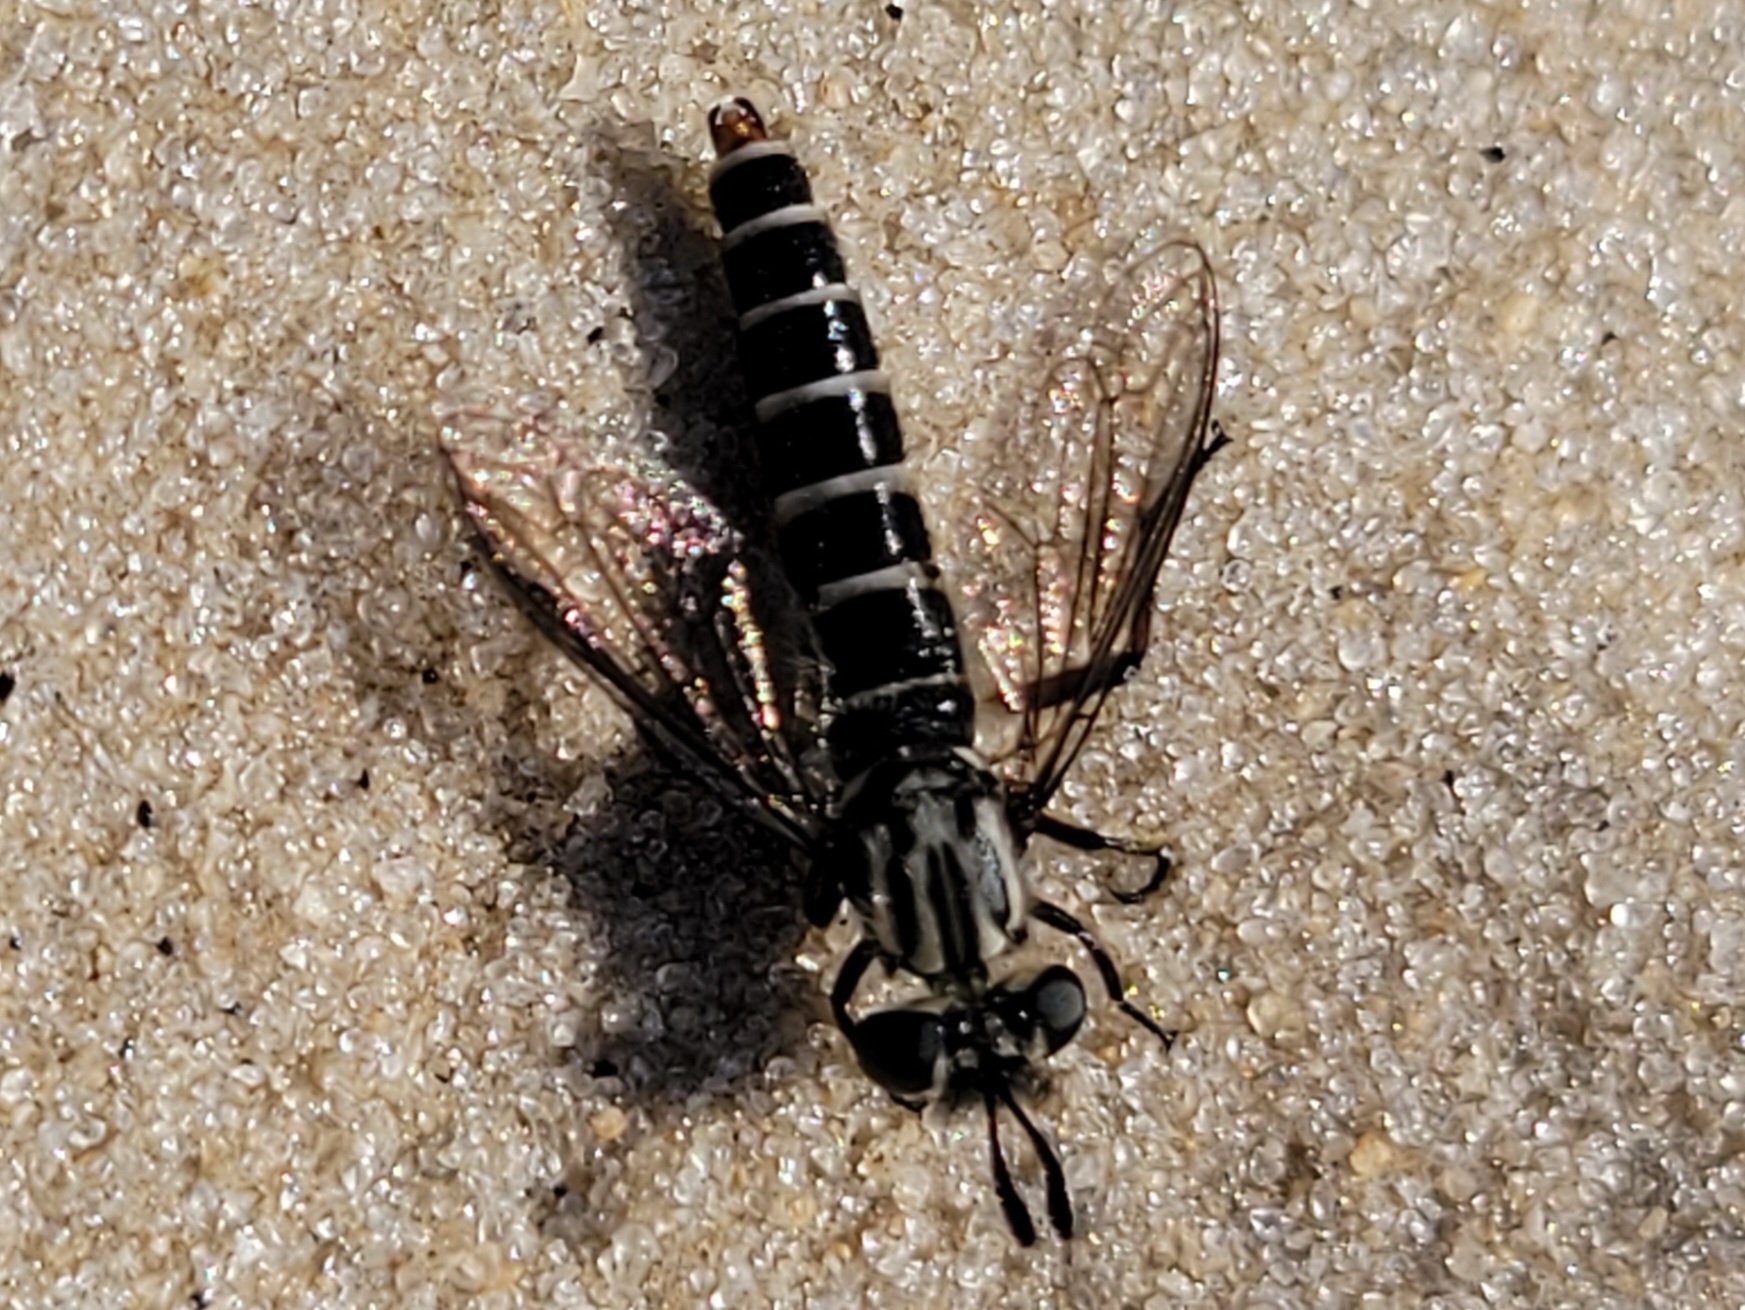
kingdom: Animalia
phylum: Arthropoda
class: Insecta
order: Diptera
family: Mydidae
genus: Nemomydas
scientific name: Nemomydas melanopogon
